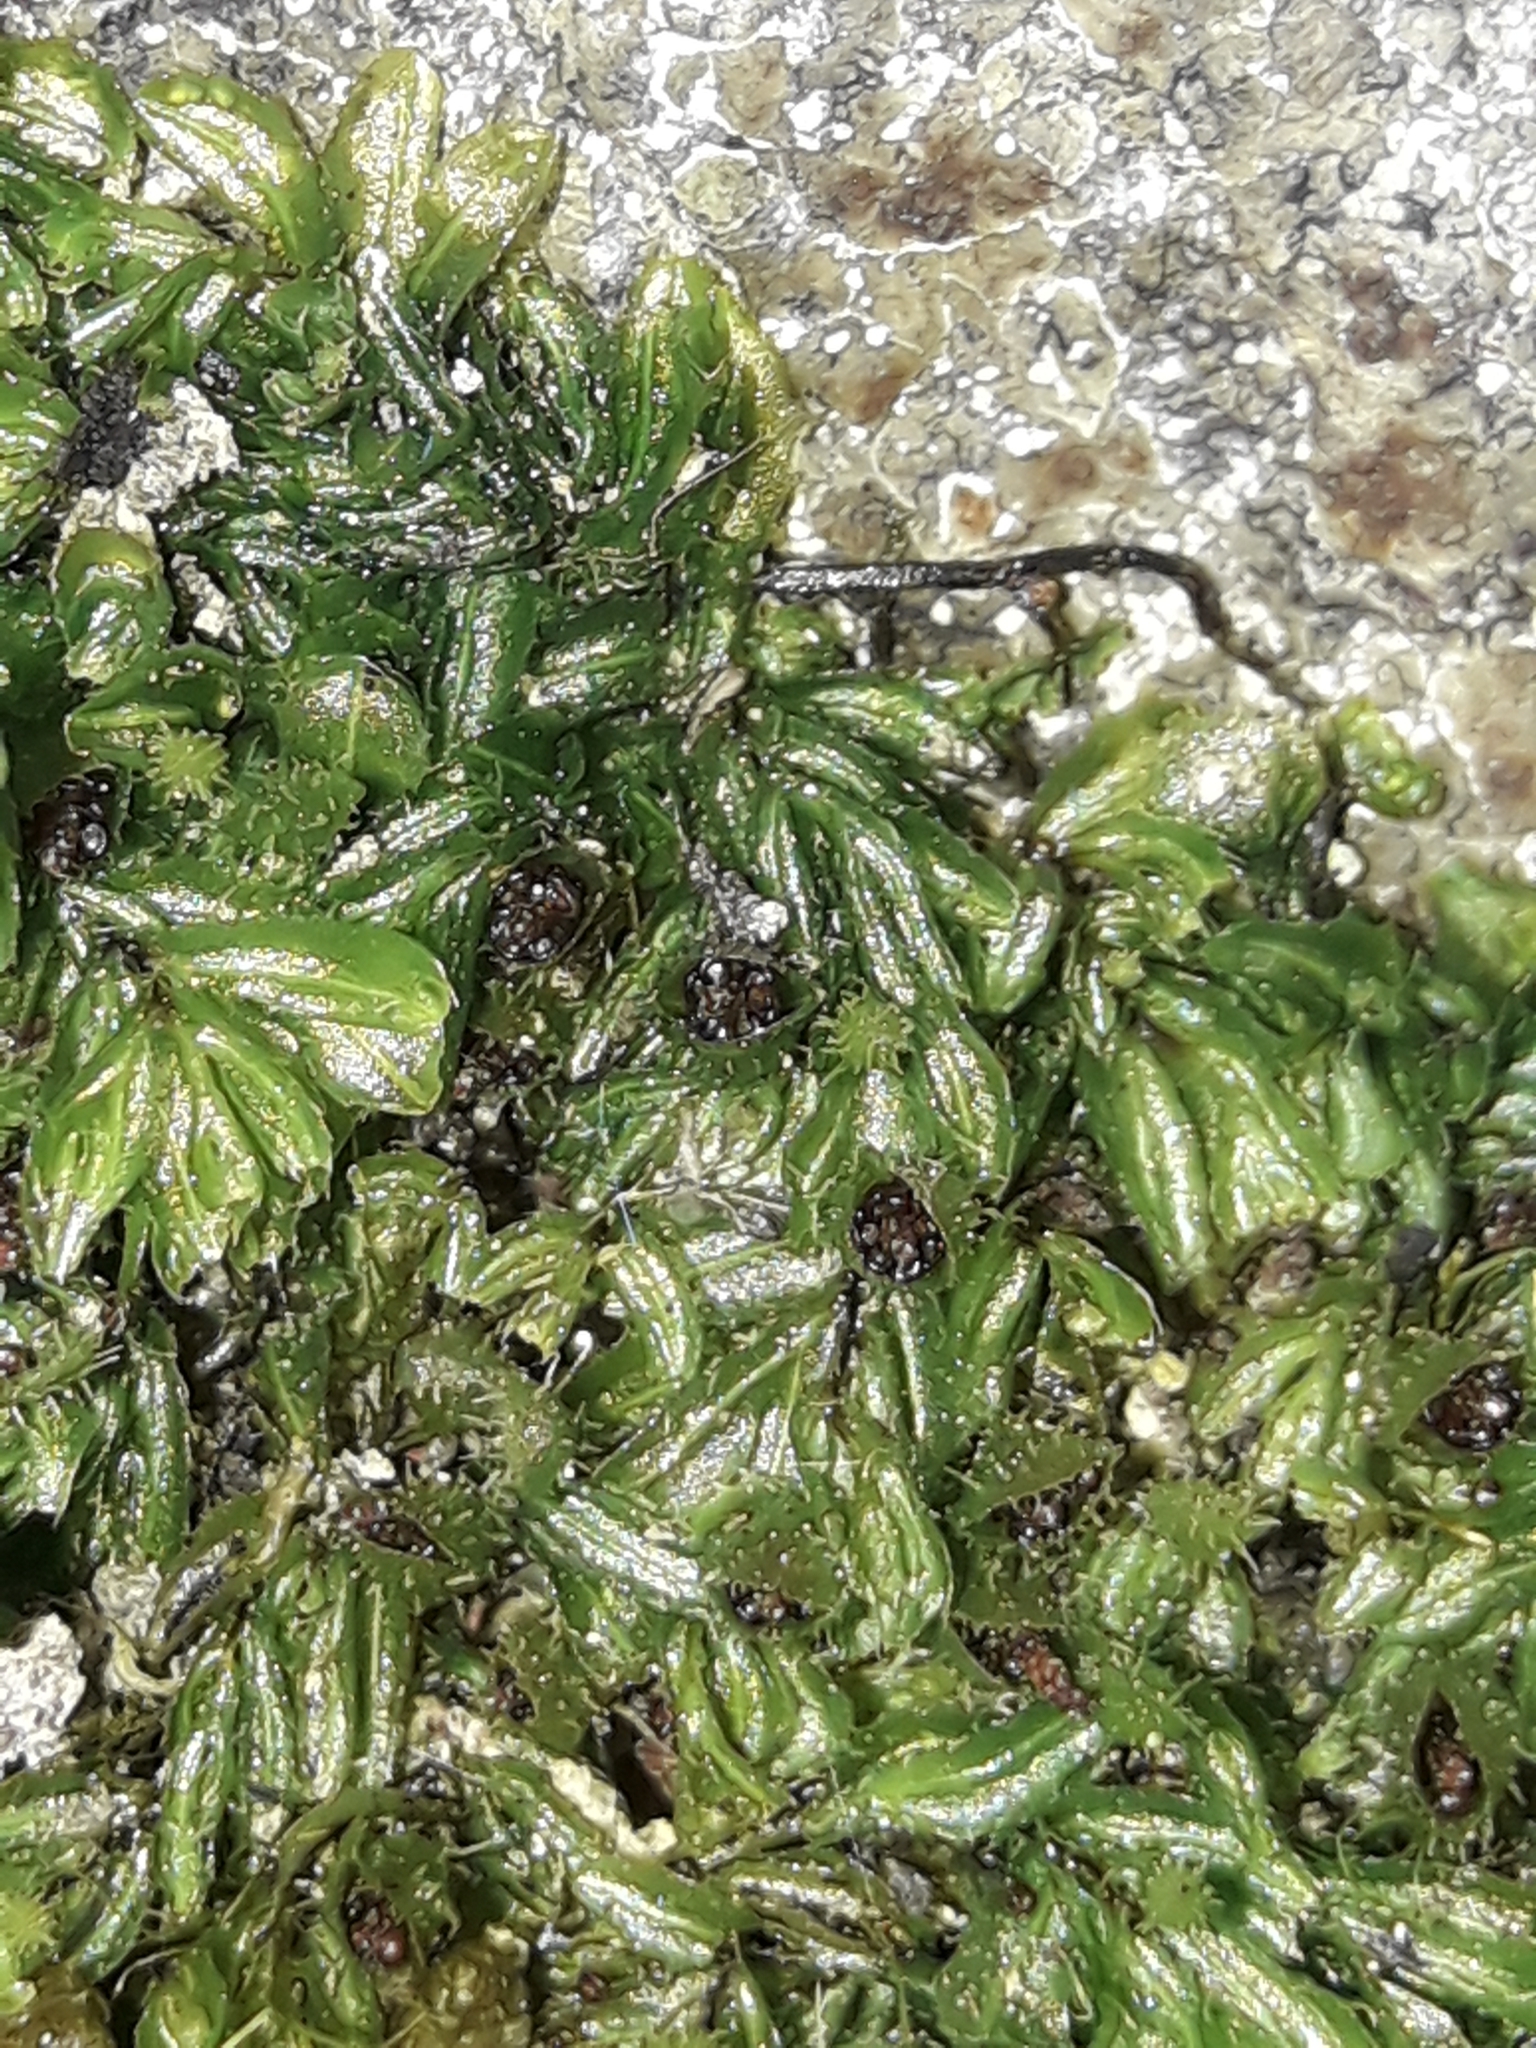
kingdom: Plantae
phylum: Tracheophyta
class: Polypodiopsida
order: Hymenophyllales
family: Hymenophyllaceae
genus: Hymenophyllum
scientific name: Hymenophyllum minimum
